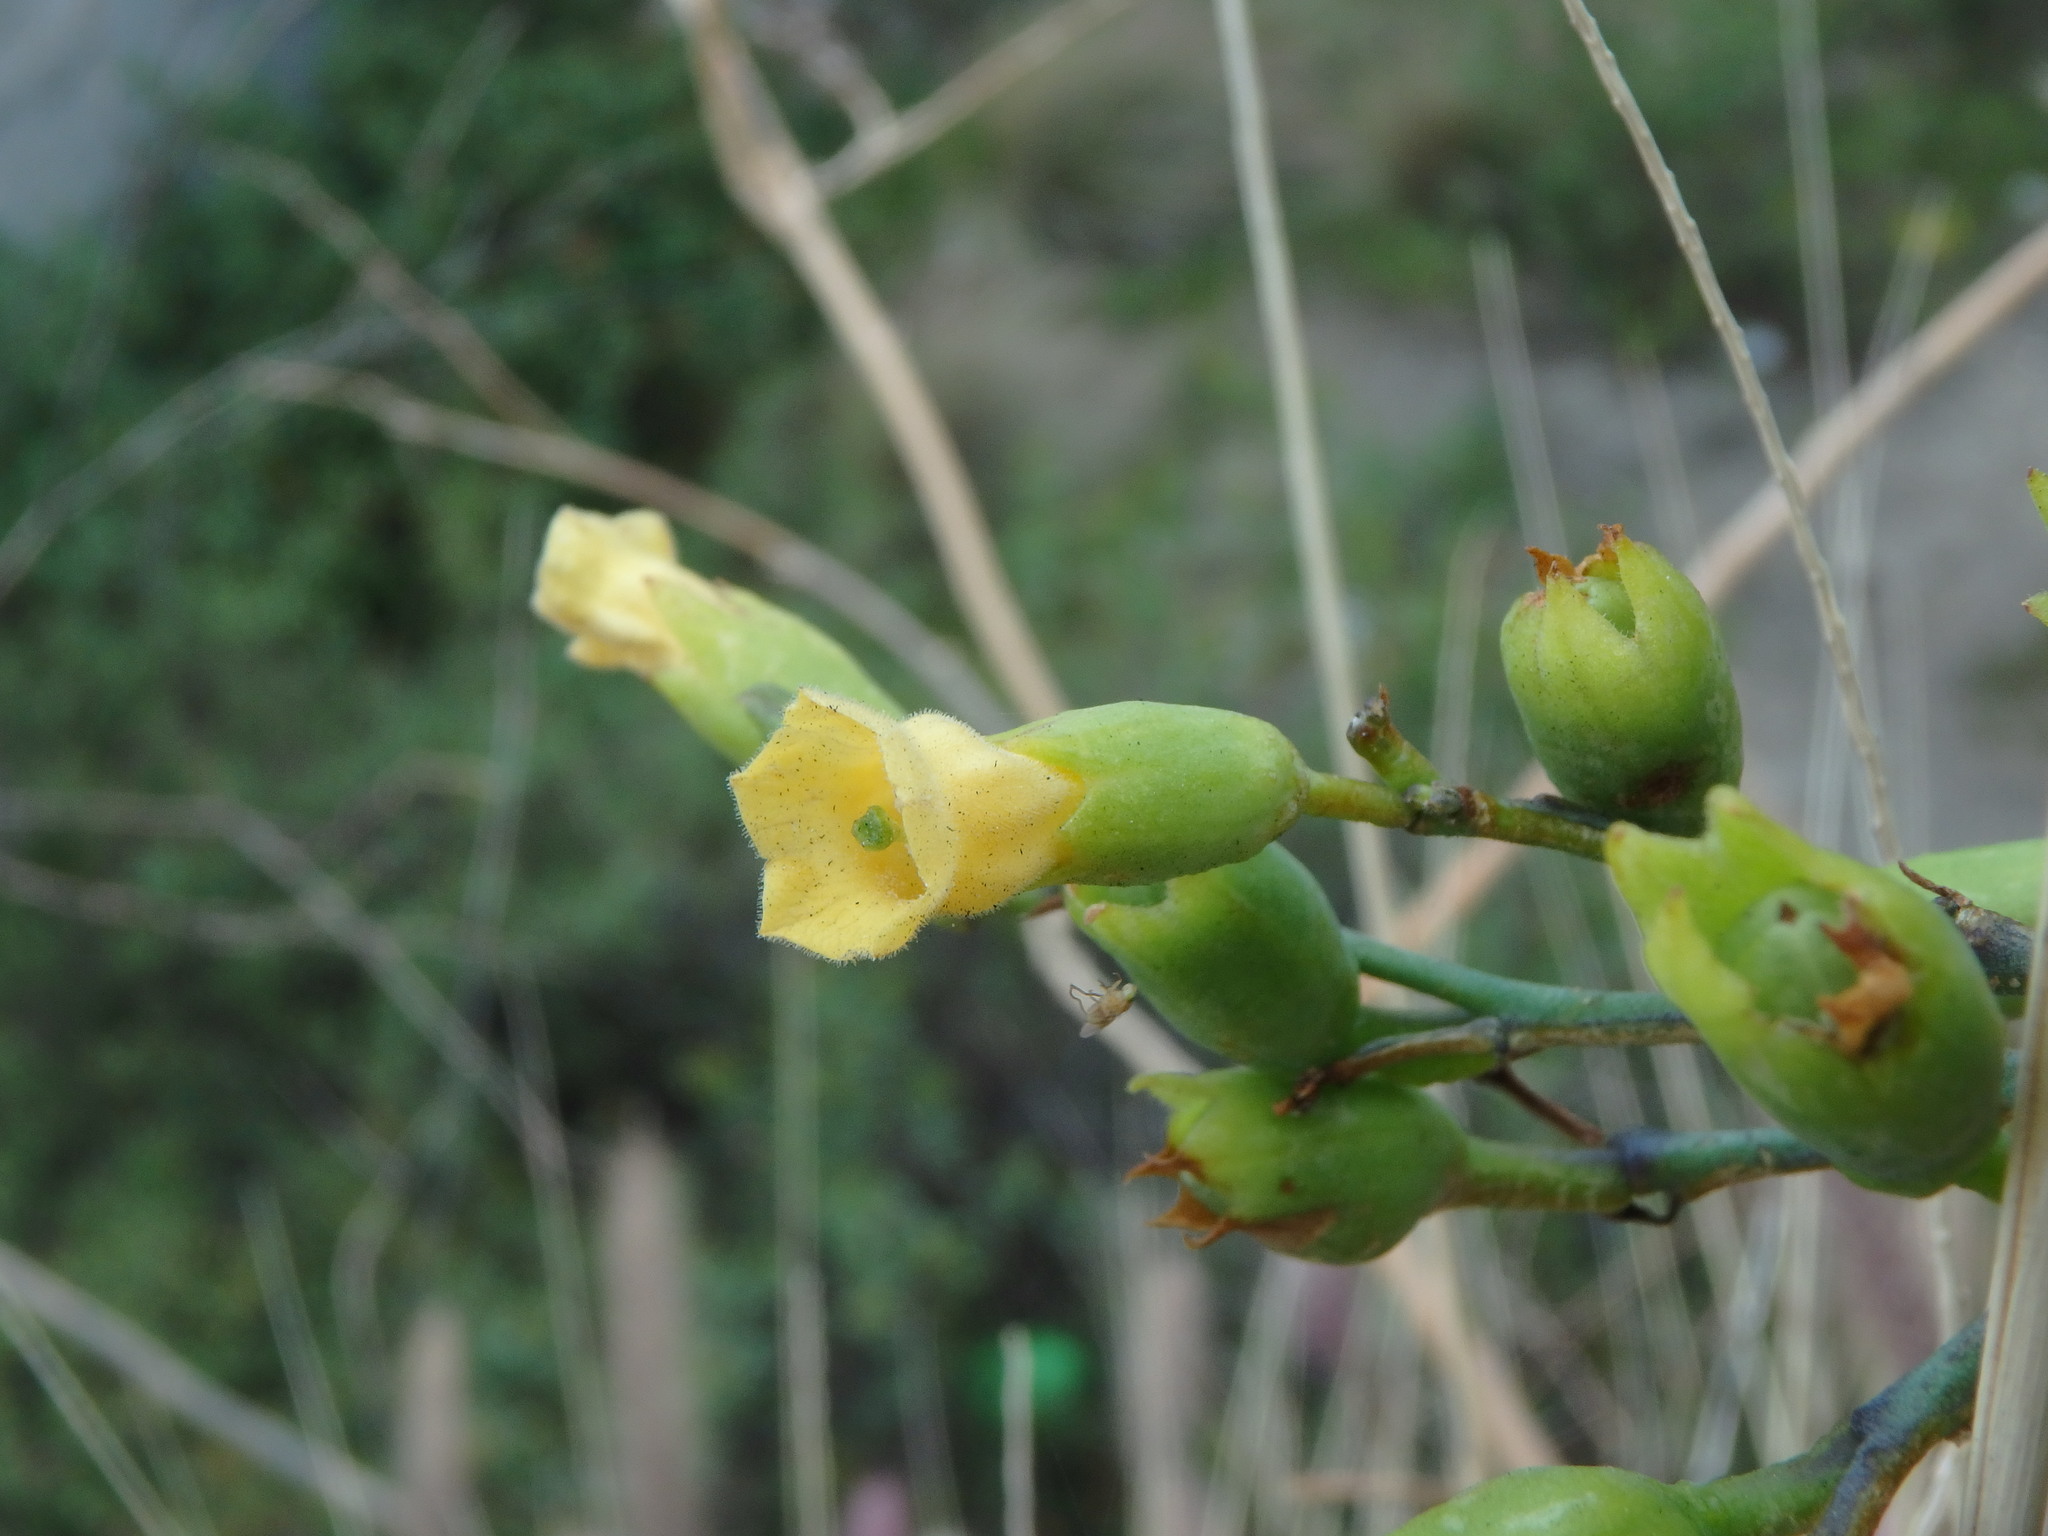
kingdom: Plantae
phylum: Tracheophyta
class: Magnoliopsida
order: Solanales
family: Solanaceae
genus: Nicotiana
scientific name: Nicotiana glauca
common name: Tree tobacco
